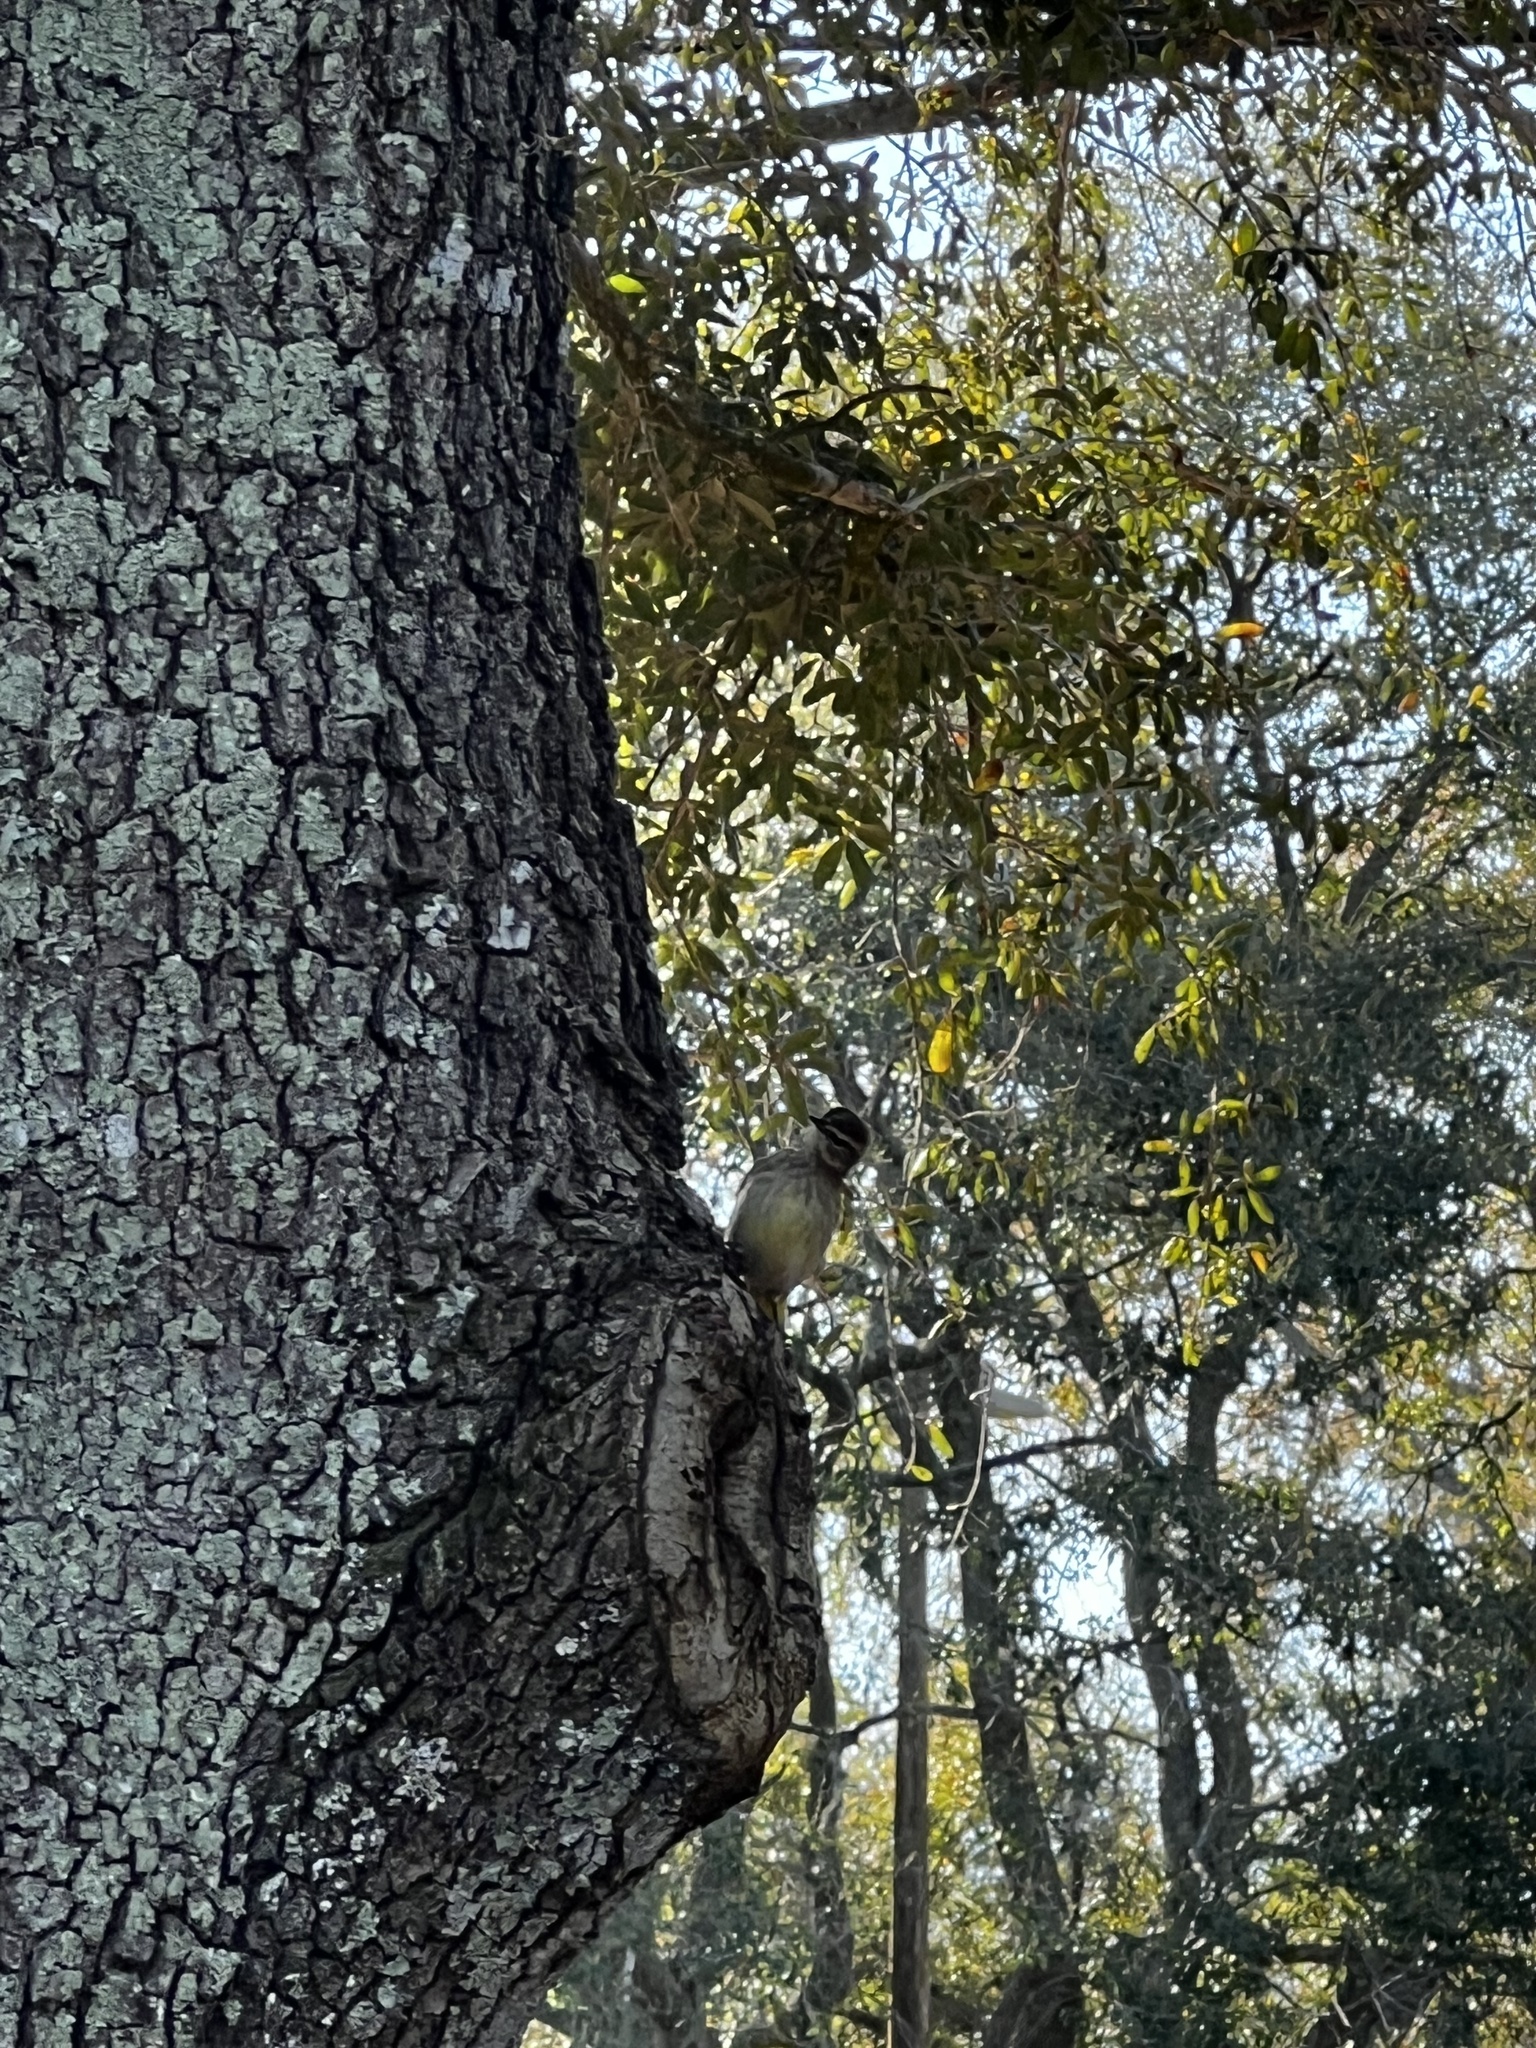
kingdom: Animalia
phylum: Chordata
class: Aves
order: Passeriformes
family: Parulidae
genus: Setophaga
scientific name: Setophaga palmarum
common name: Palm warbler
